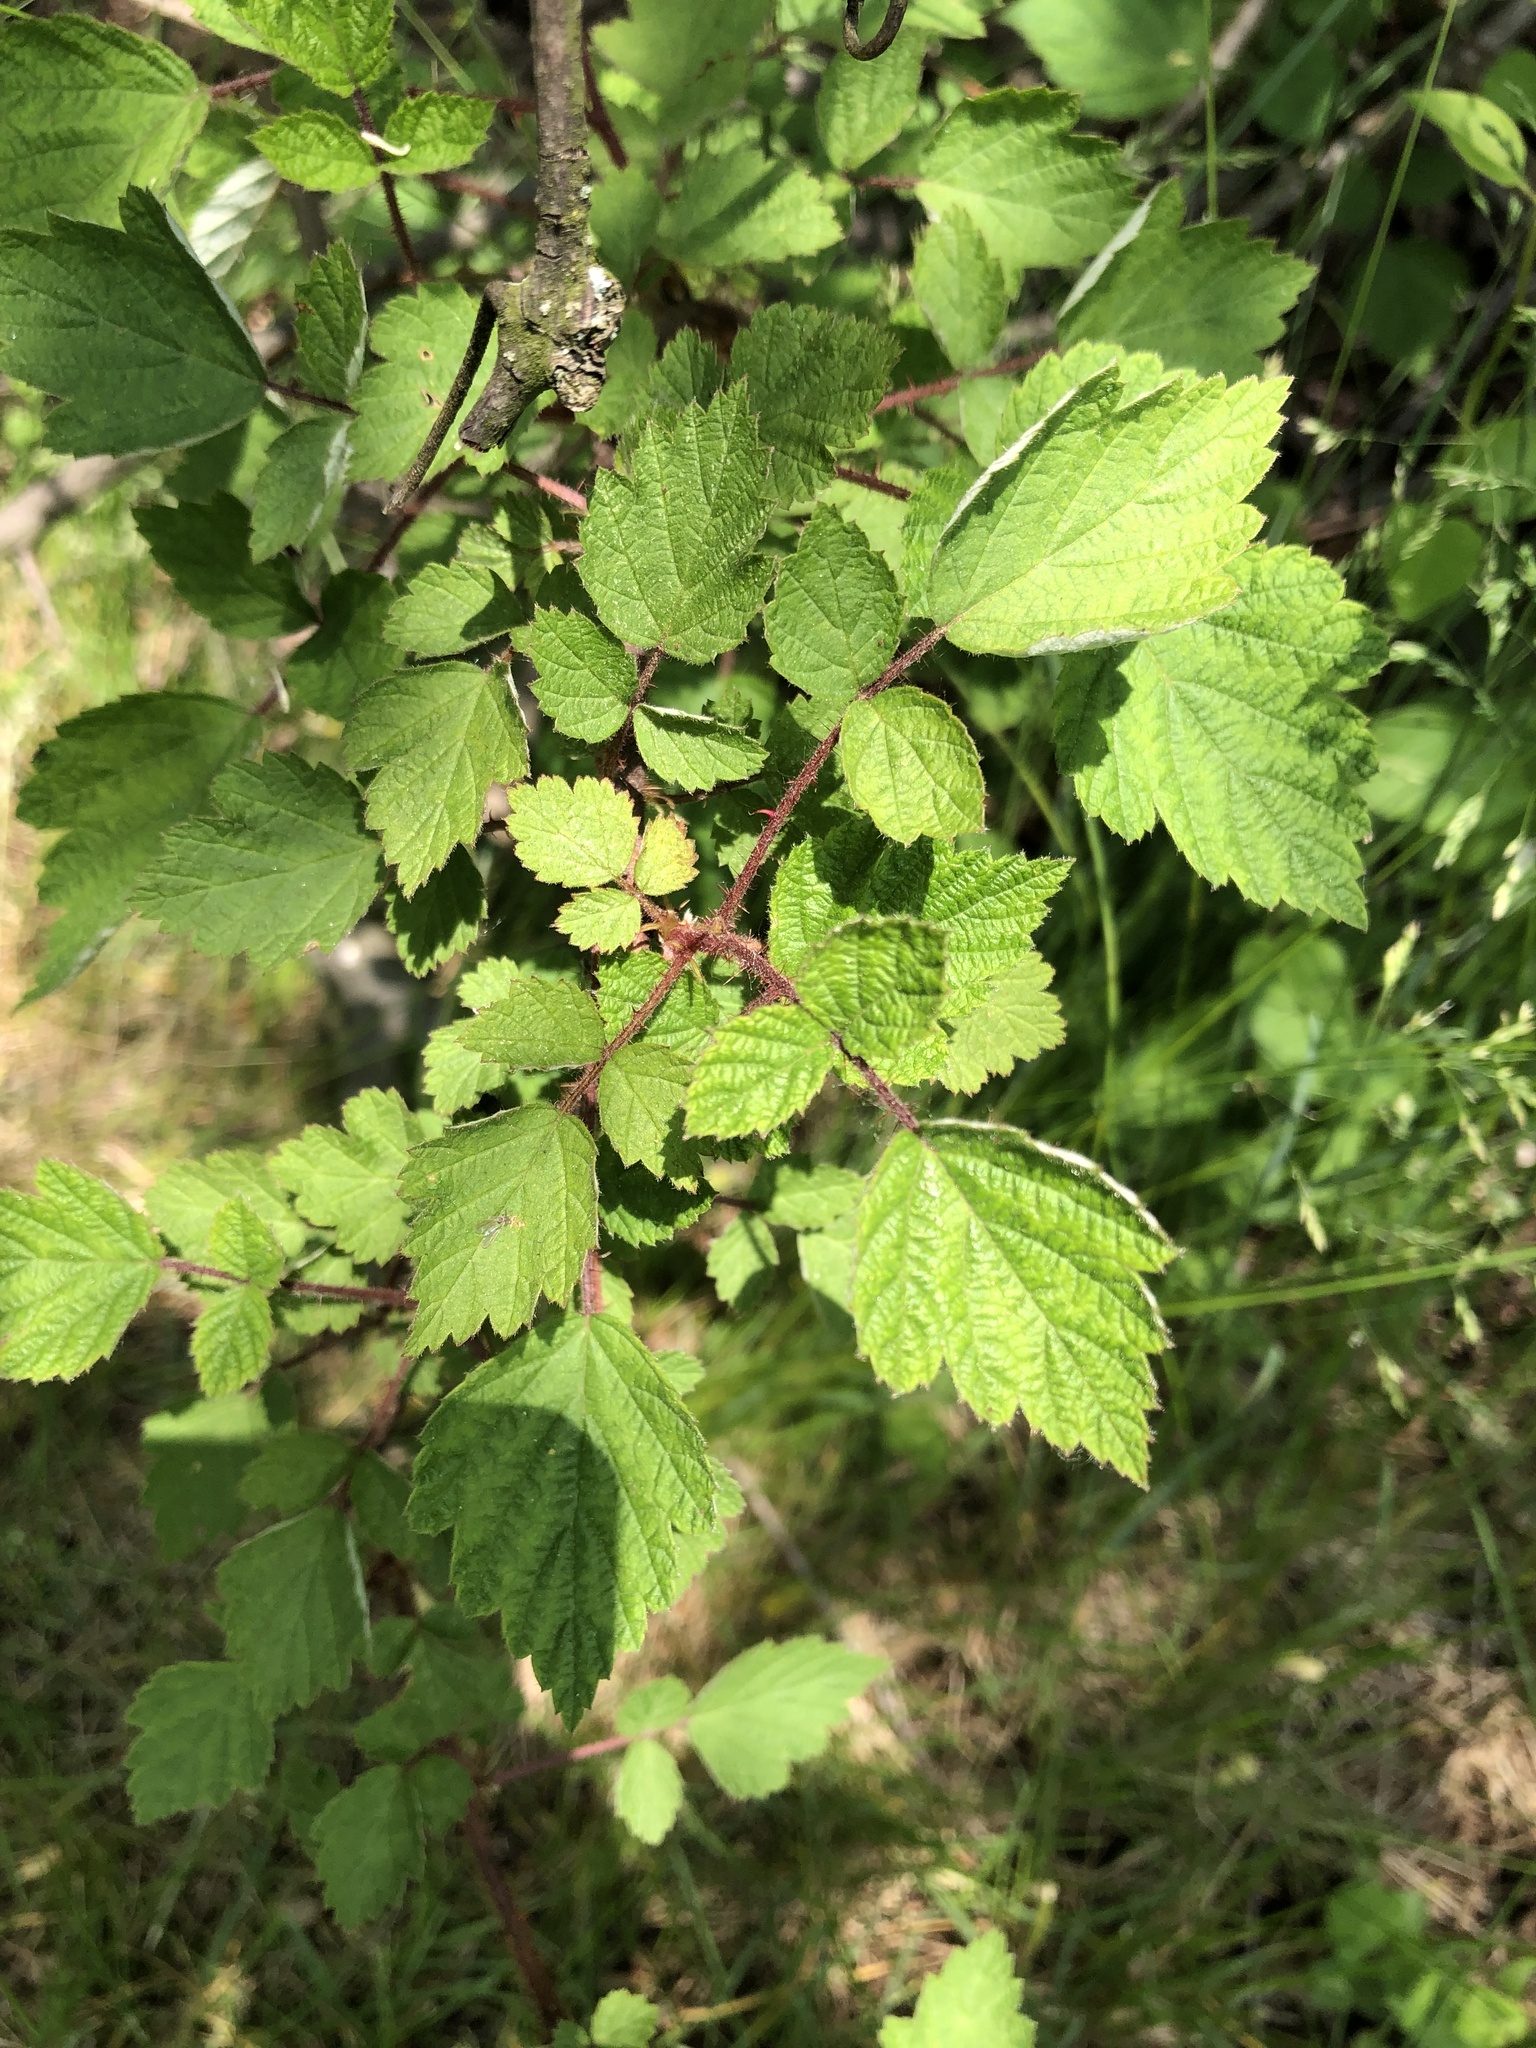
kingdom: Plantae
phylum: Tracheophyta
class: Magnoliopsida
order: Rosales
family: Rosaceae
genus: Rubus
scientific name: Rubus phoenicolasius
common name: Japanese wineberry
